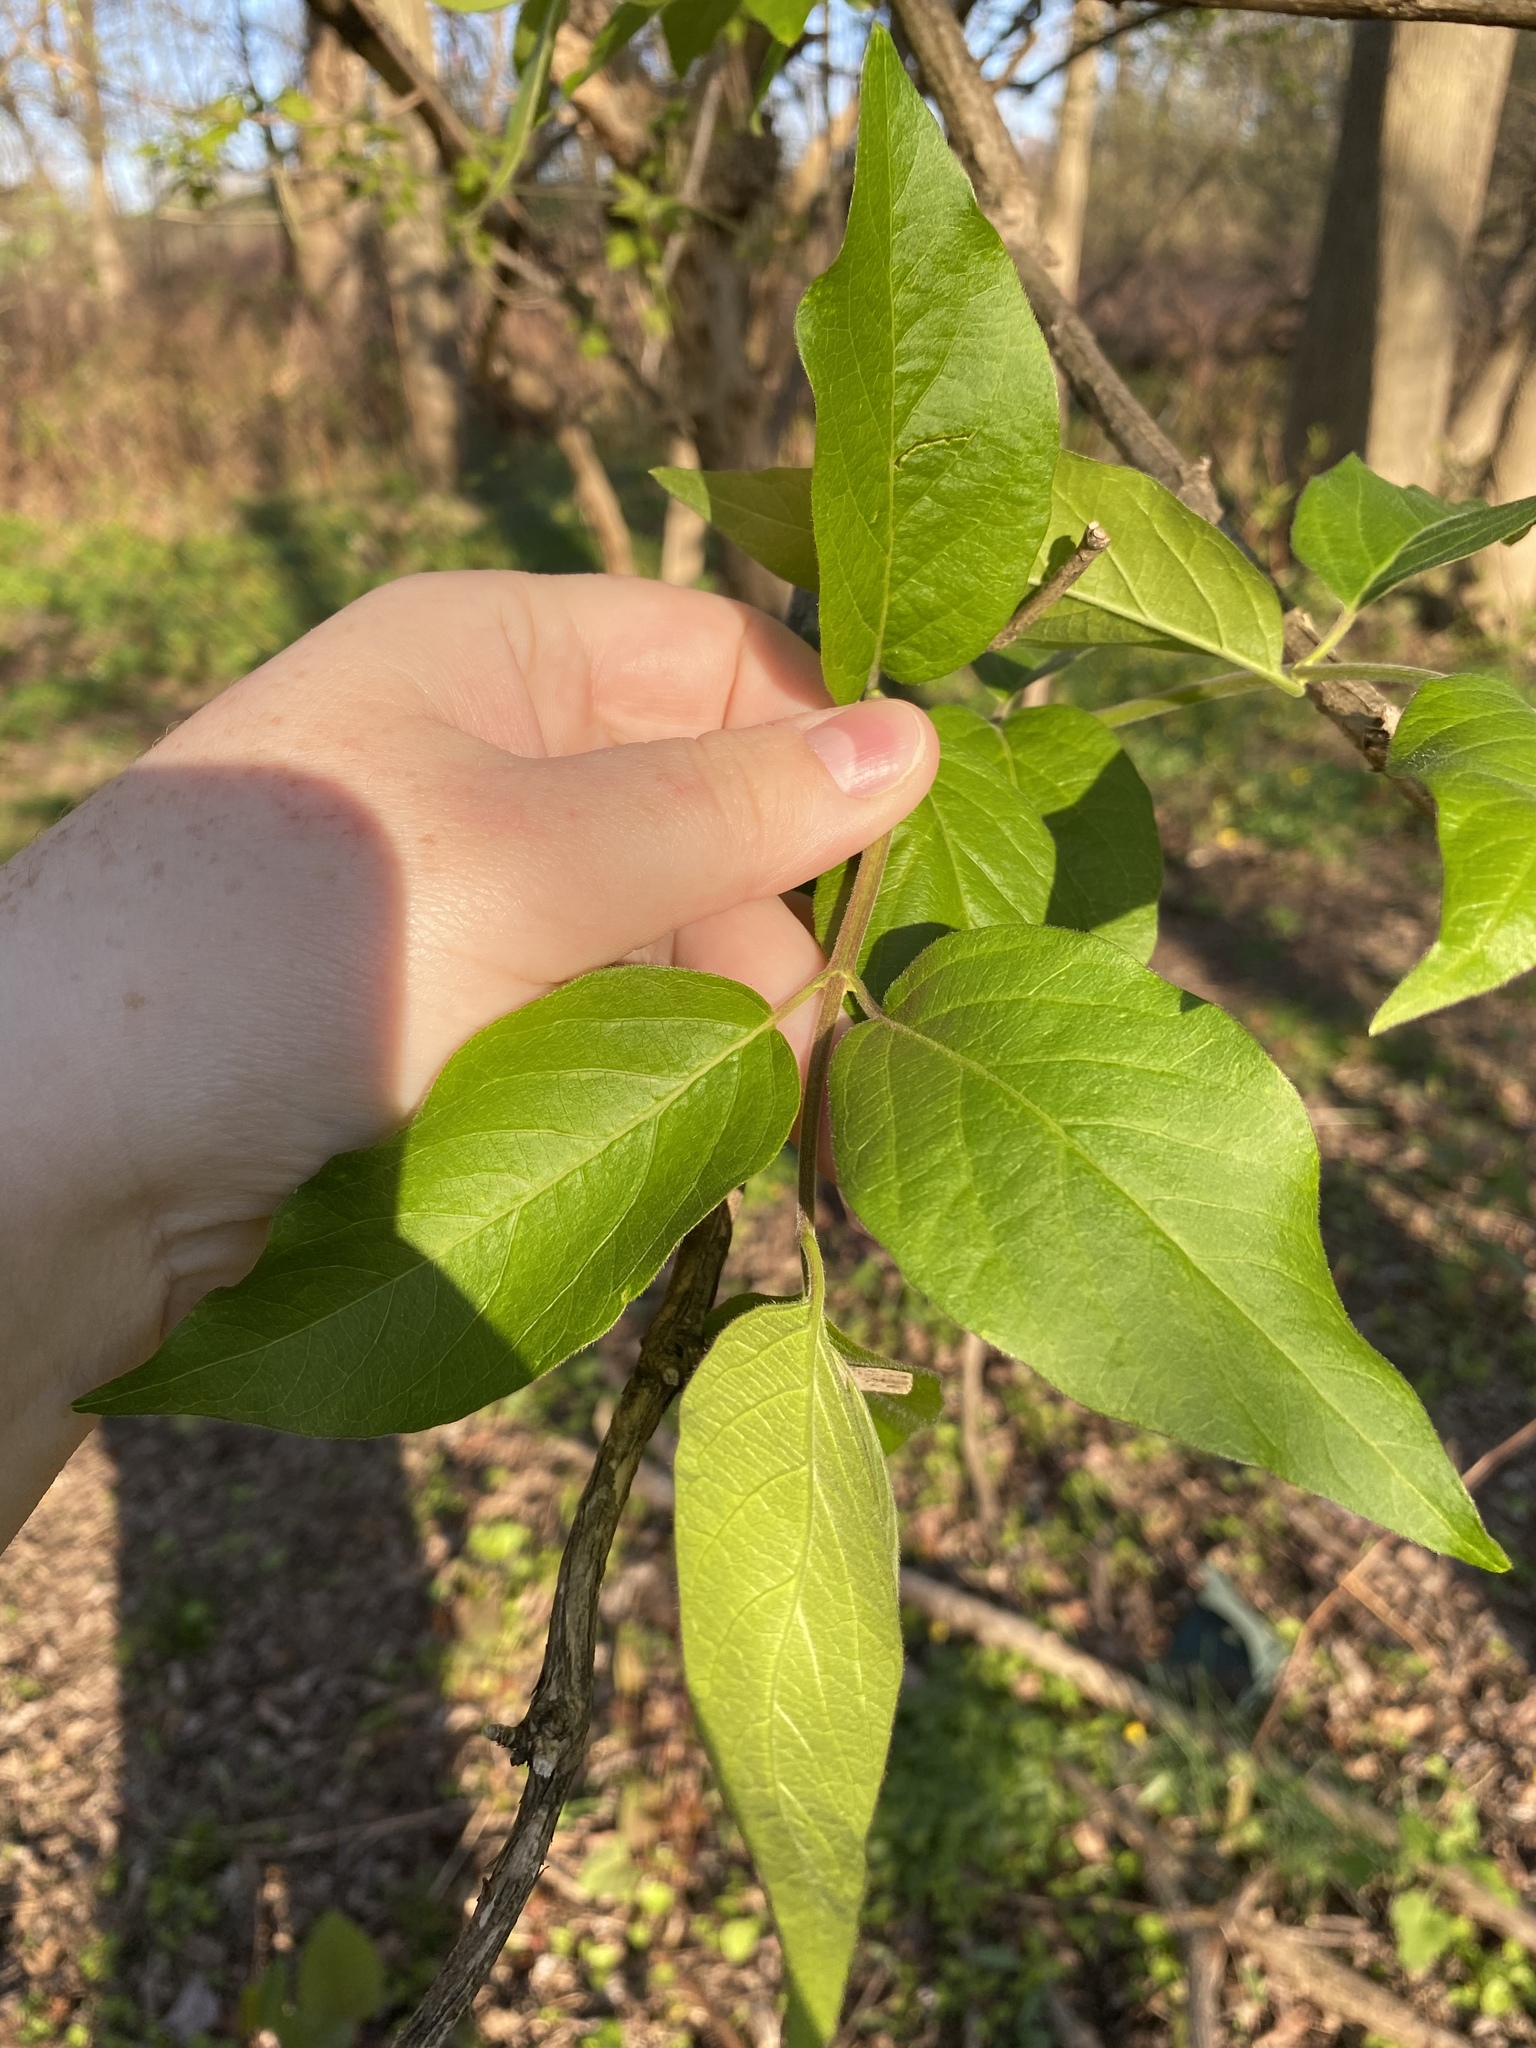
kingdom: Plantae
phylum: Tracheophyta
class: Magnoliopsida
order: Dipsacales
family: Caprifoliaceae
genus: Lonicera
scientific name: Lonicera maackii
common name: Amur honeysuckle
